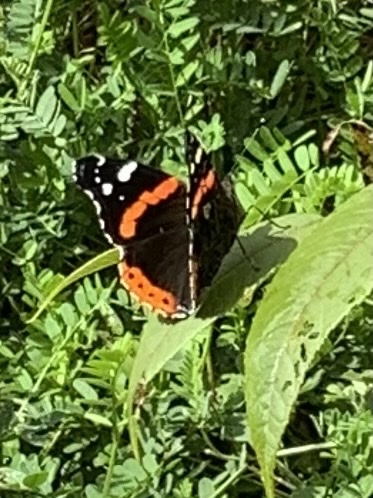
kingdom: Animalia
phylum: Arthropoda
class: Insecta
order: Lepidoptera
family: Nymphalidae
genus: Vanessa
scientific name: Vanessa atalanta
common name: Red admiral
